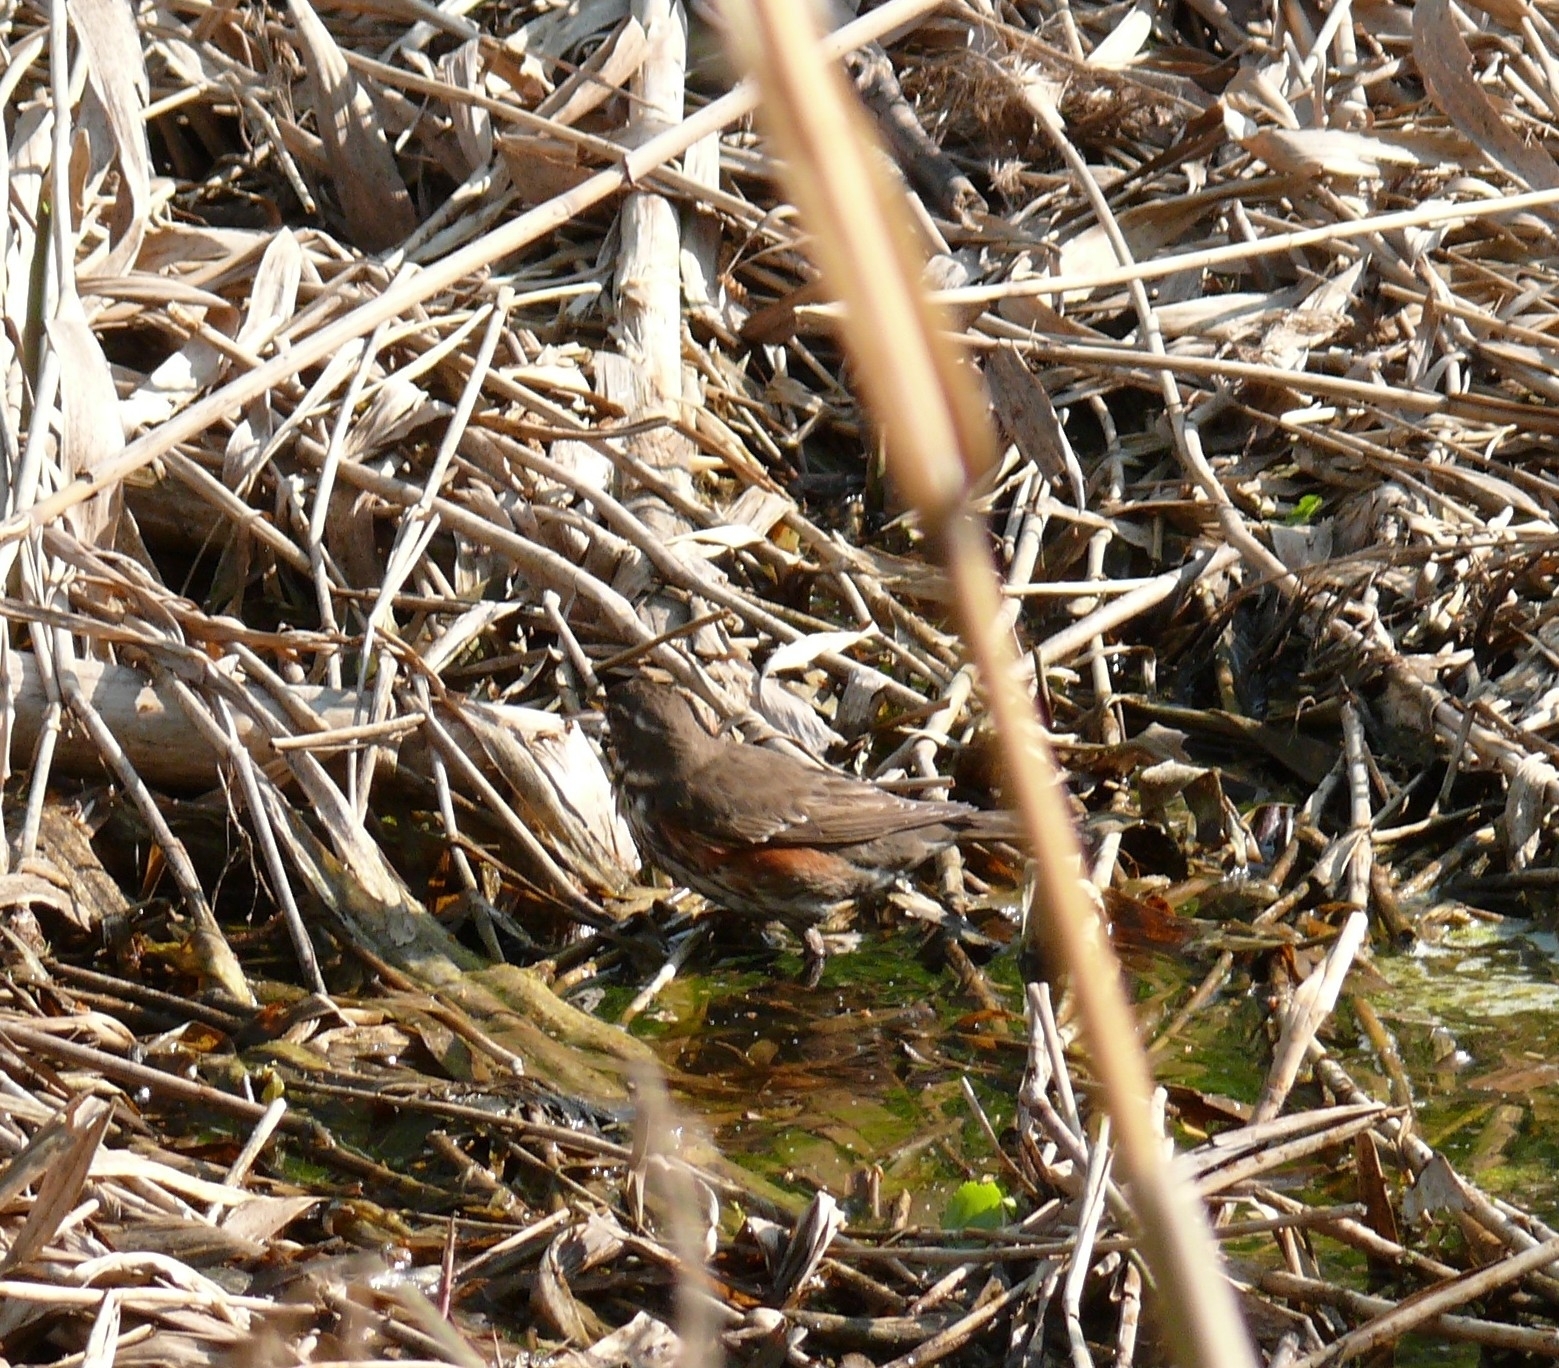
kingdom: Animalia
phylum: Chordata
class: Aves
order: Passeriformes
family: Turdidae
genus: Turdus
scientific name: Turdus iliacus
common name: Redwing
